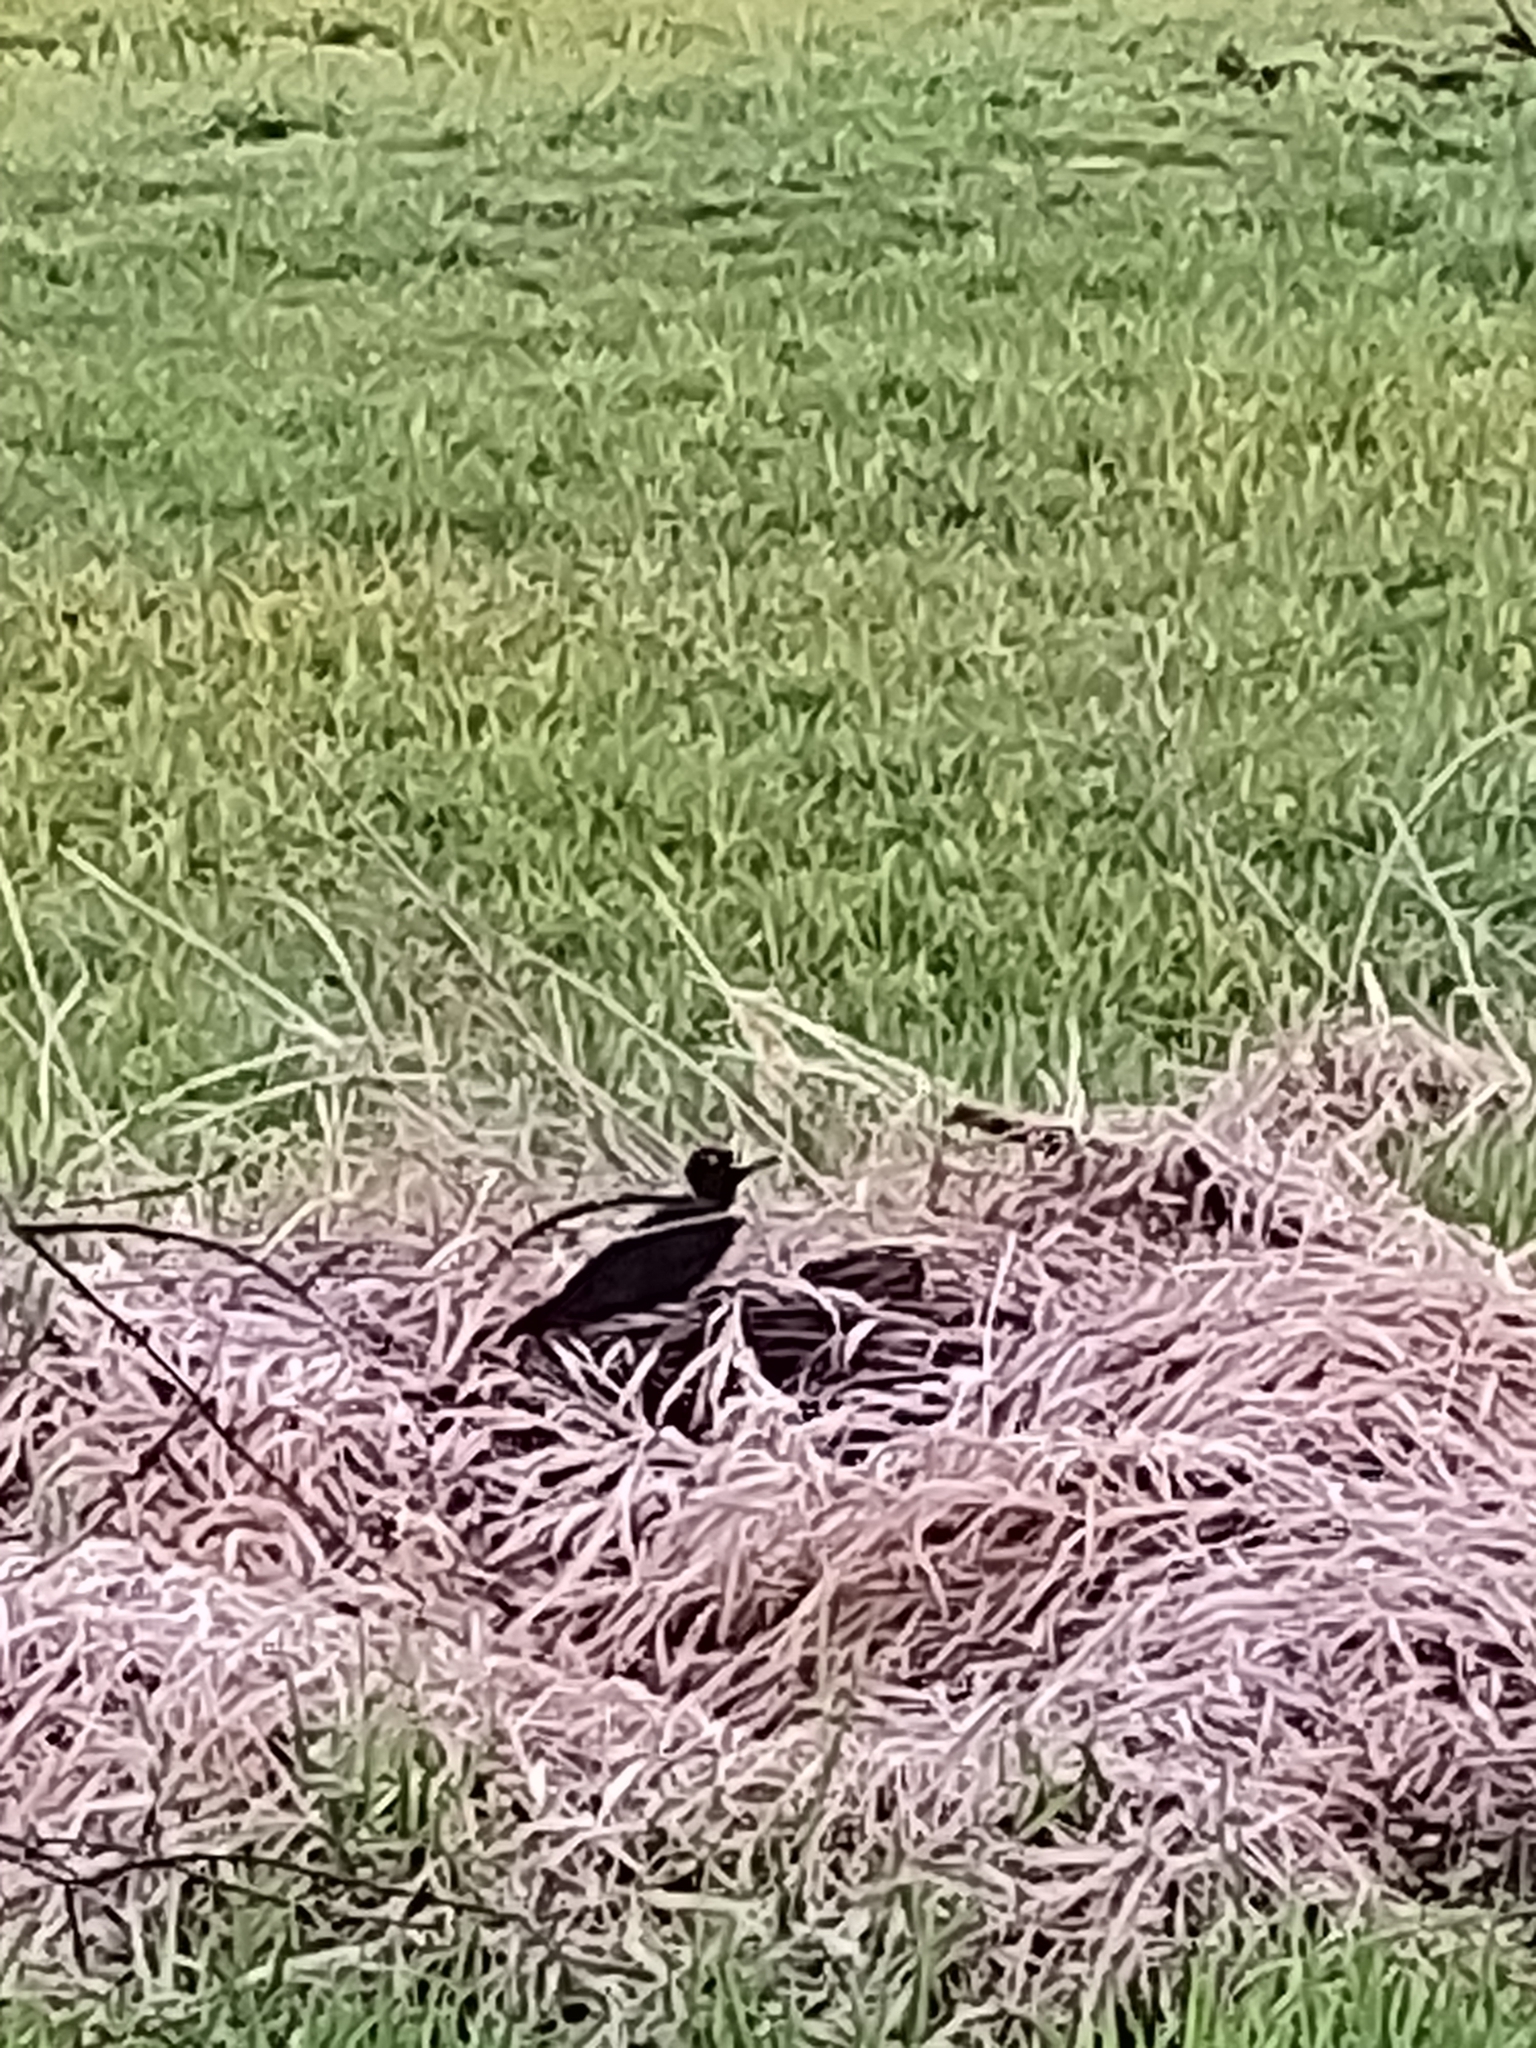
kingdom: Animalia
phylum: Chordata
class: Aves
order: Piciformes
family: Picidae
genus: Dryocopus
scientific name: Dryocopus martius
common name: Black woodpecker
